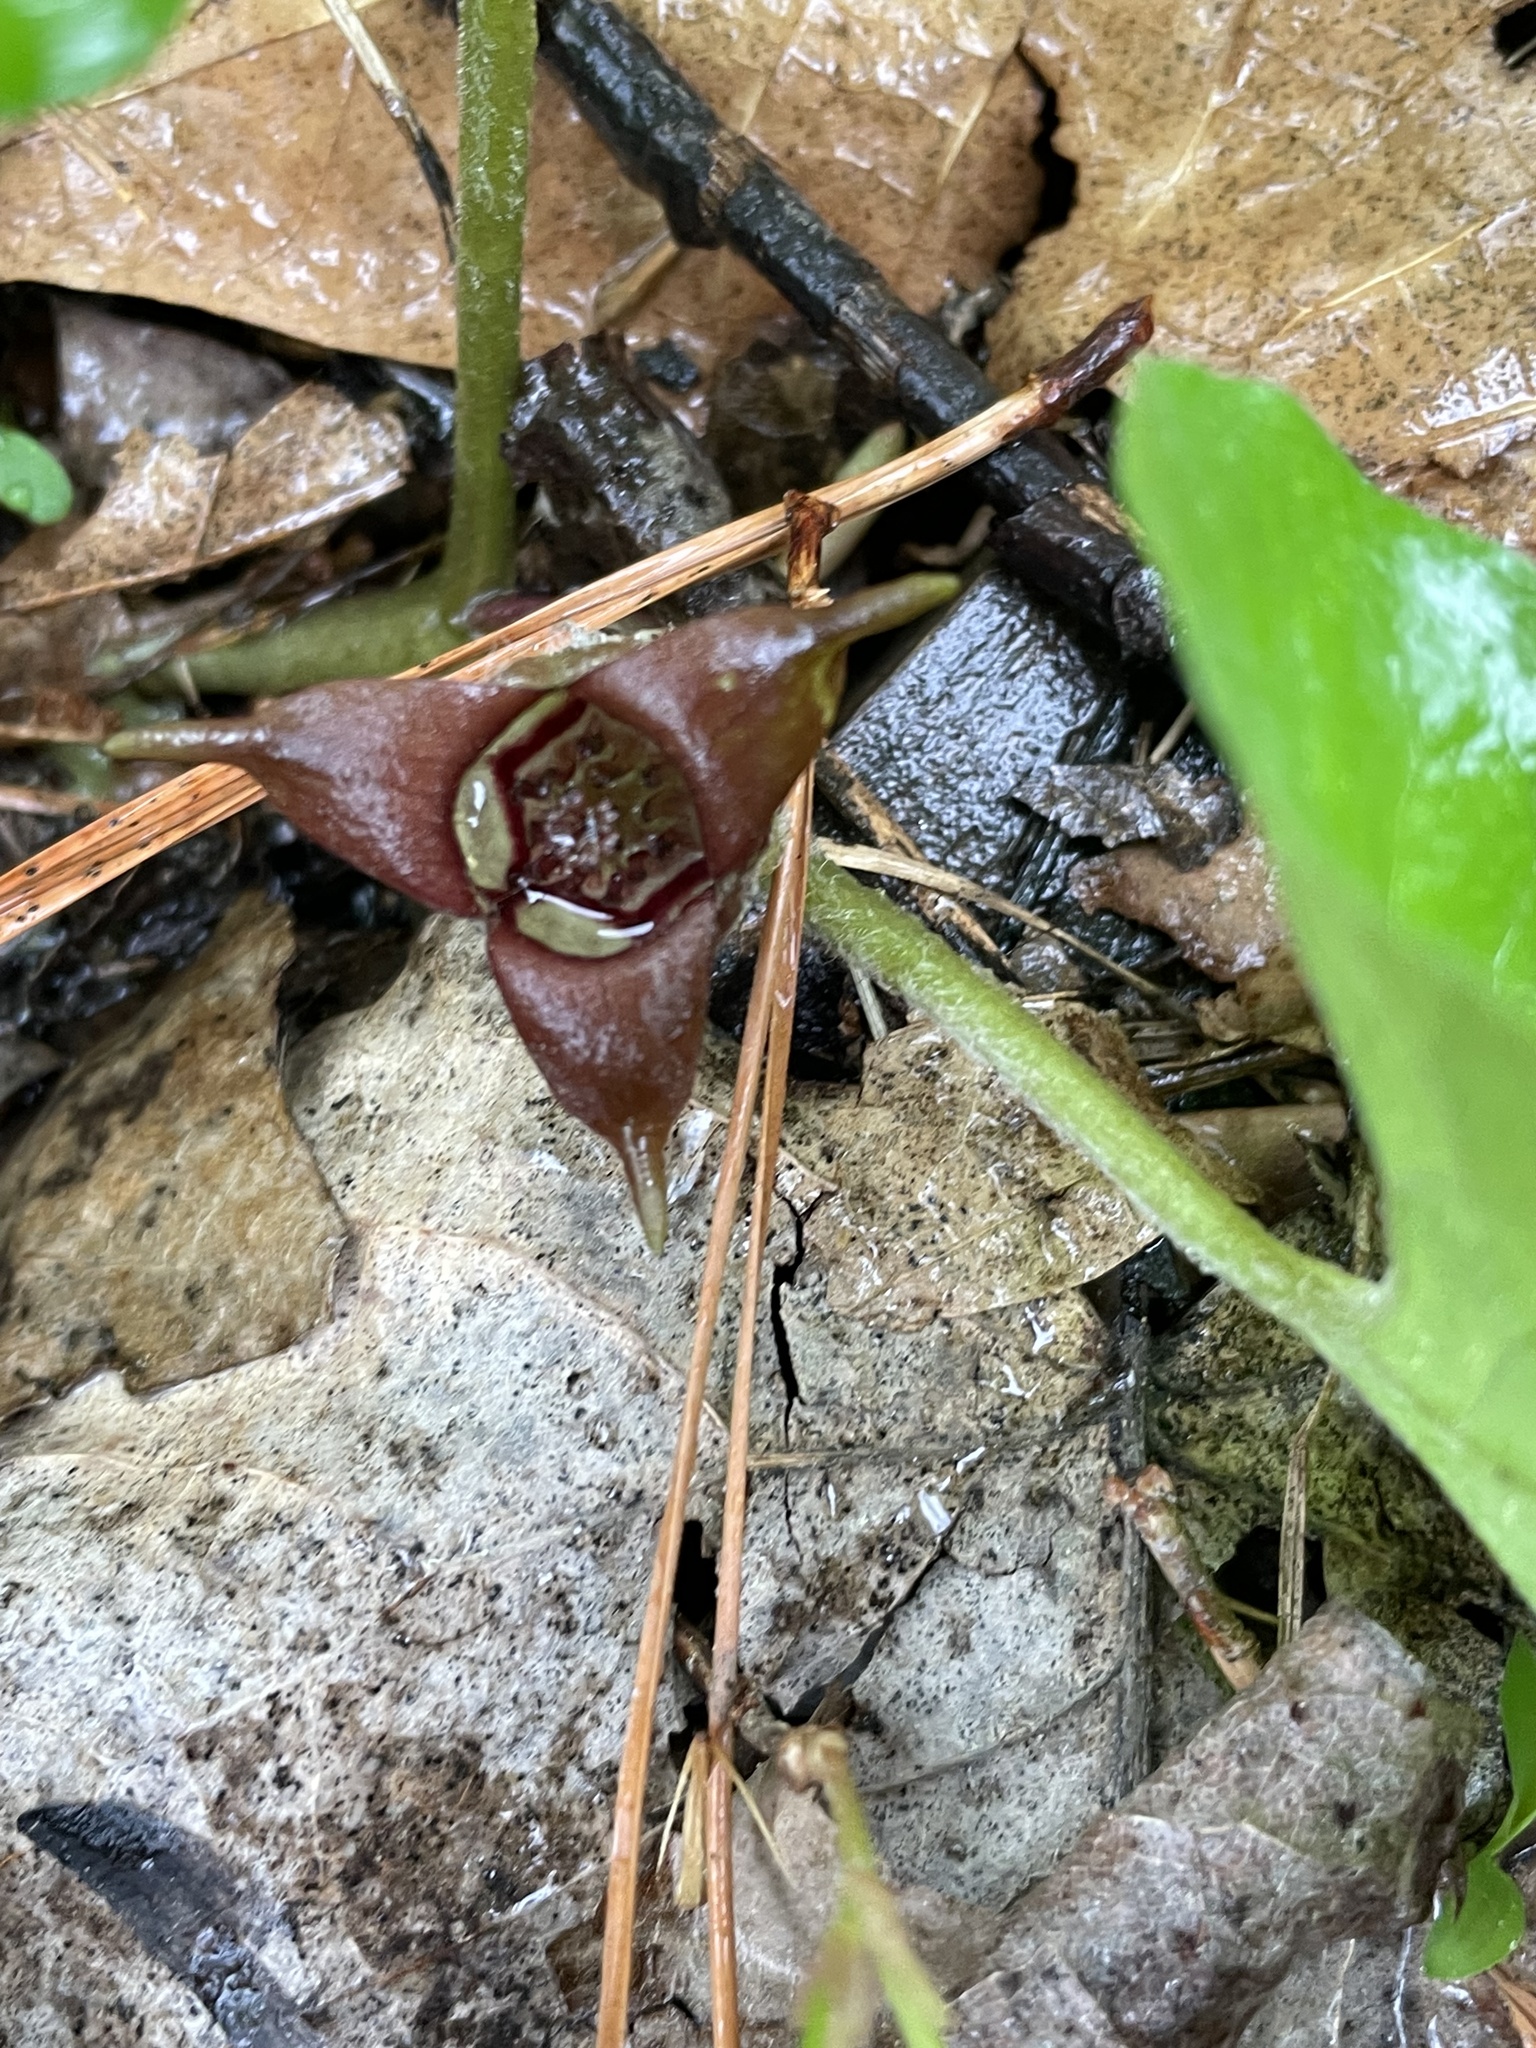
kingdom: Plantae
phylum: Tracheophyta
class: Magnoliopsida
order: Piperales
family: Aristolochiaceae
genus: Asarum
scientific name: Asarum canadense
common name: Wild ginger
